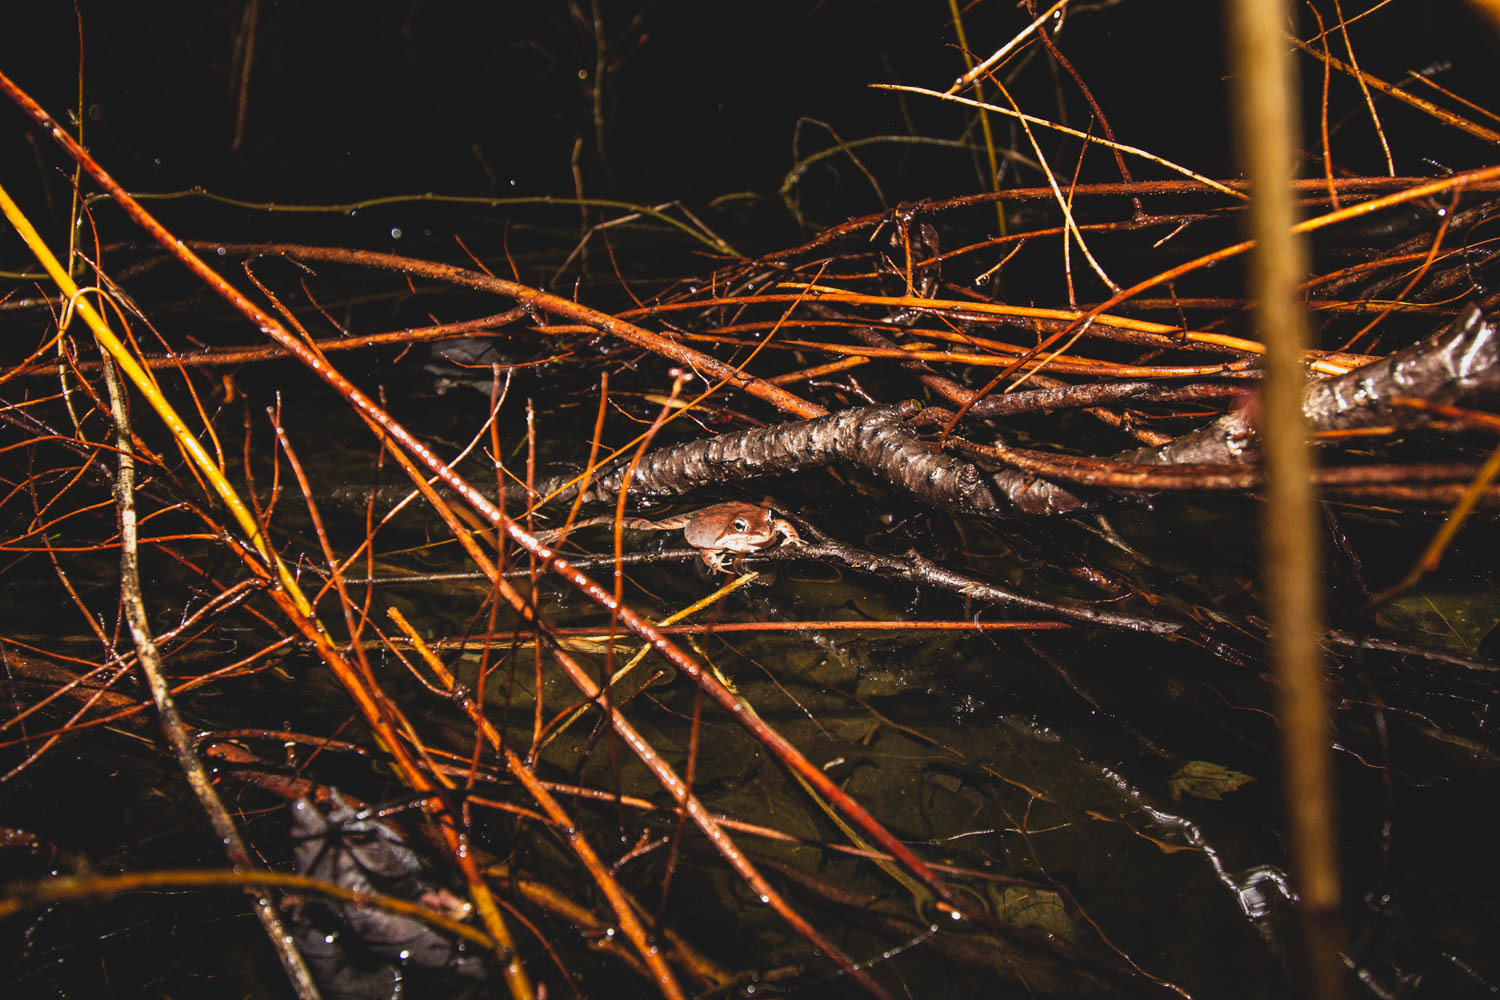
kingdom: Animalia
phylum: Chordata
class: Amphibia
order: Anura
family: Ranidae
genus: Lithobates
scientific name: Lithobates sylvaticus
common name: Wood frog
